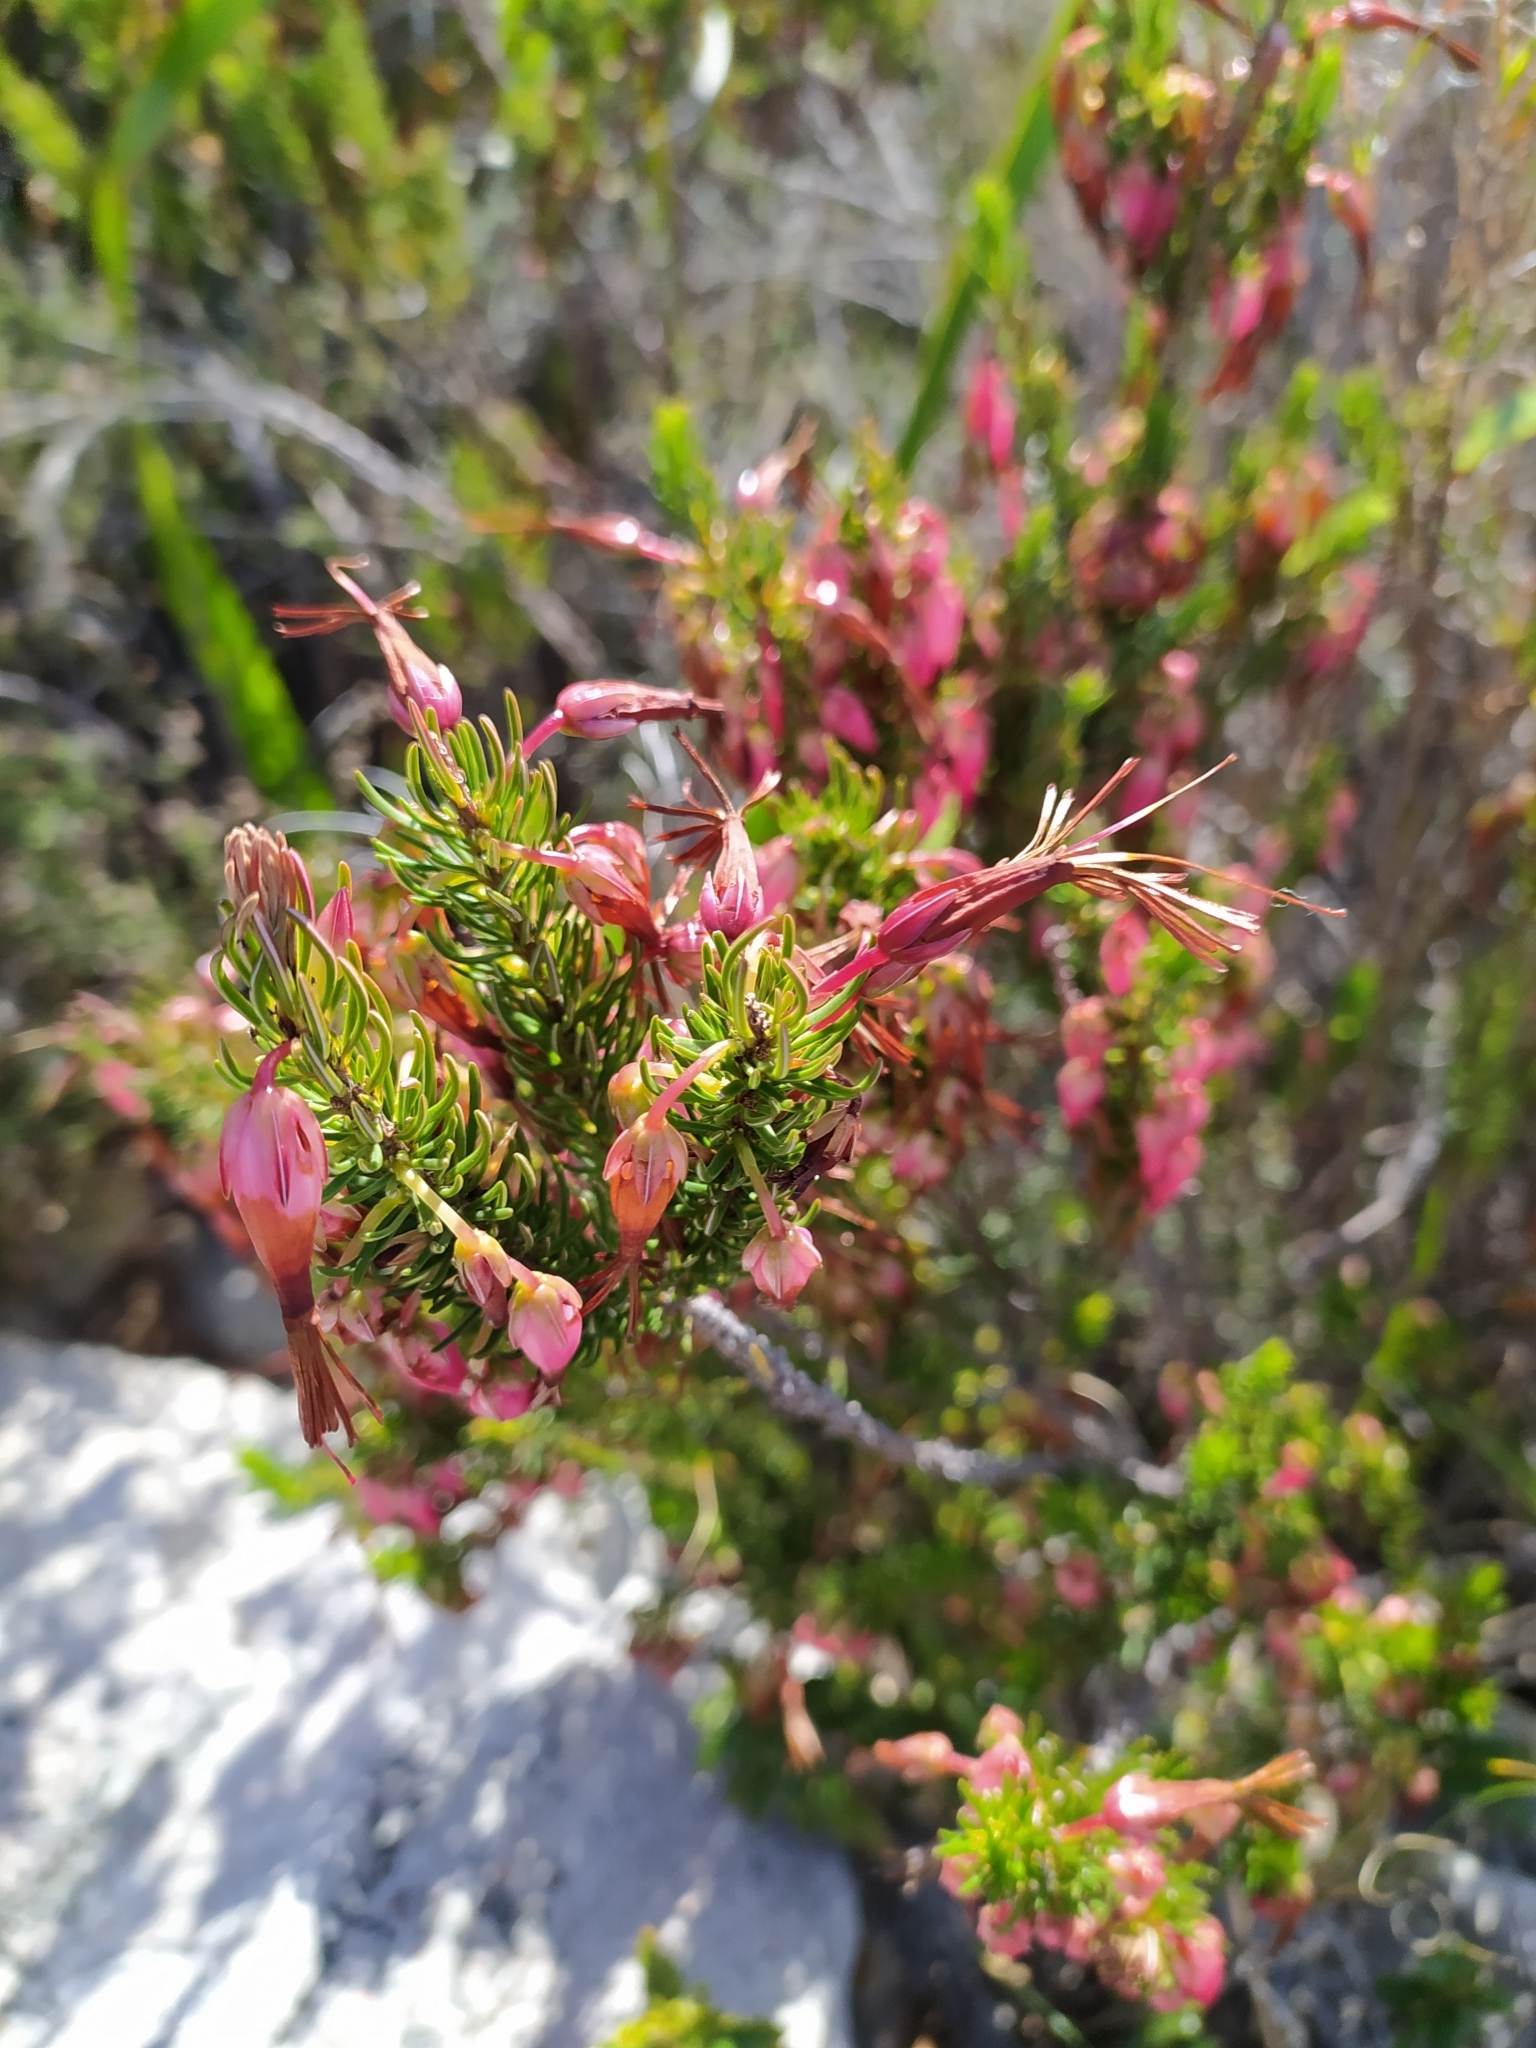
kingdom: Plantae
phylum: Tracheophyta
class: Magnoliopsida
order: Ericales
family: Ericaceae
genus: Erica
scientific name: Erica plukenetii
